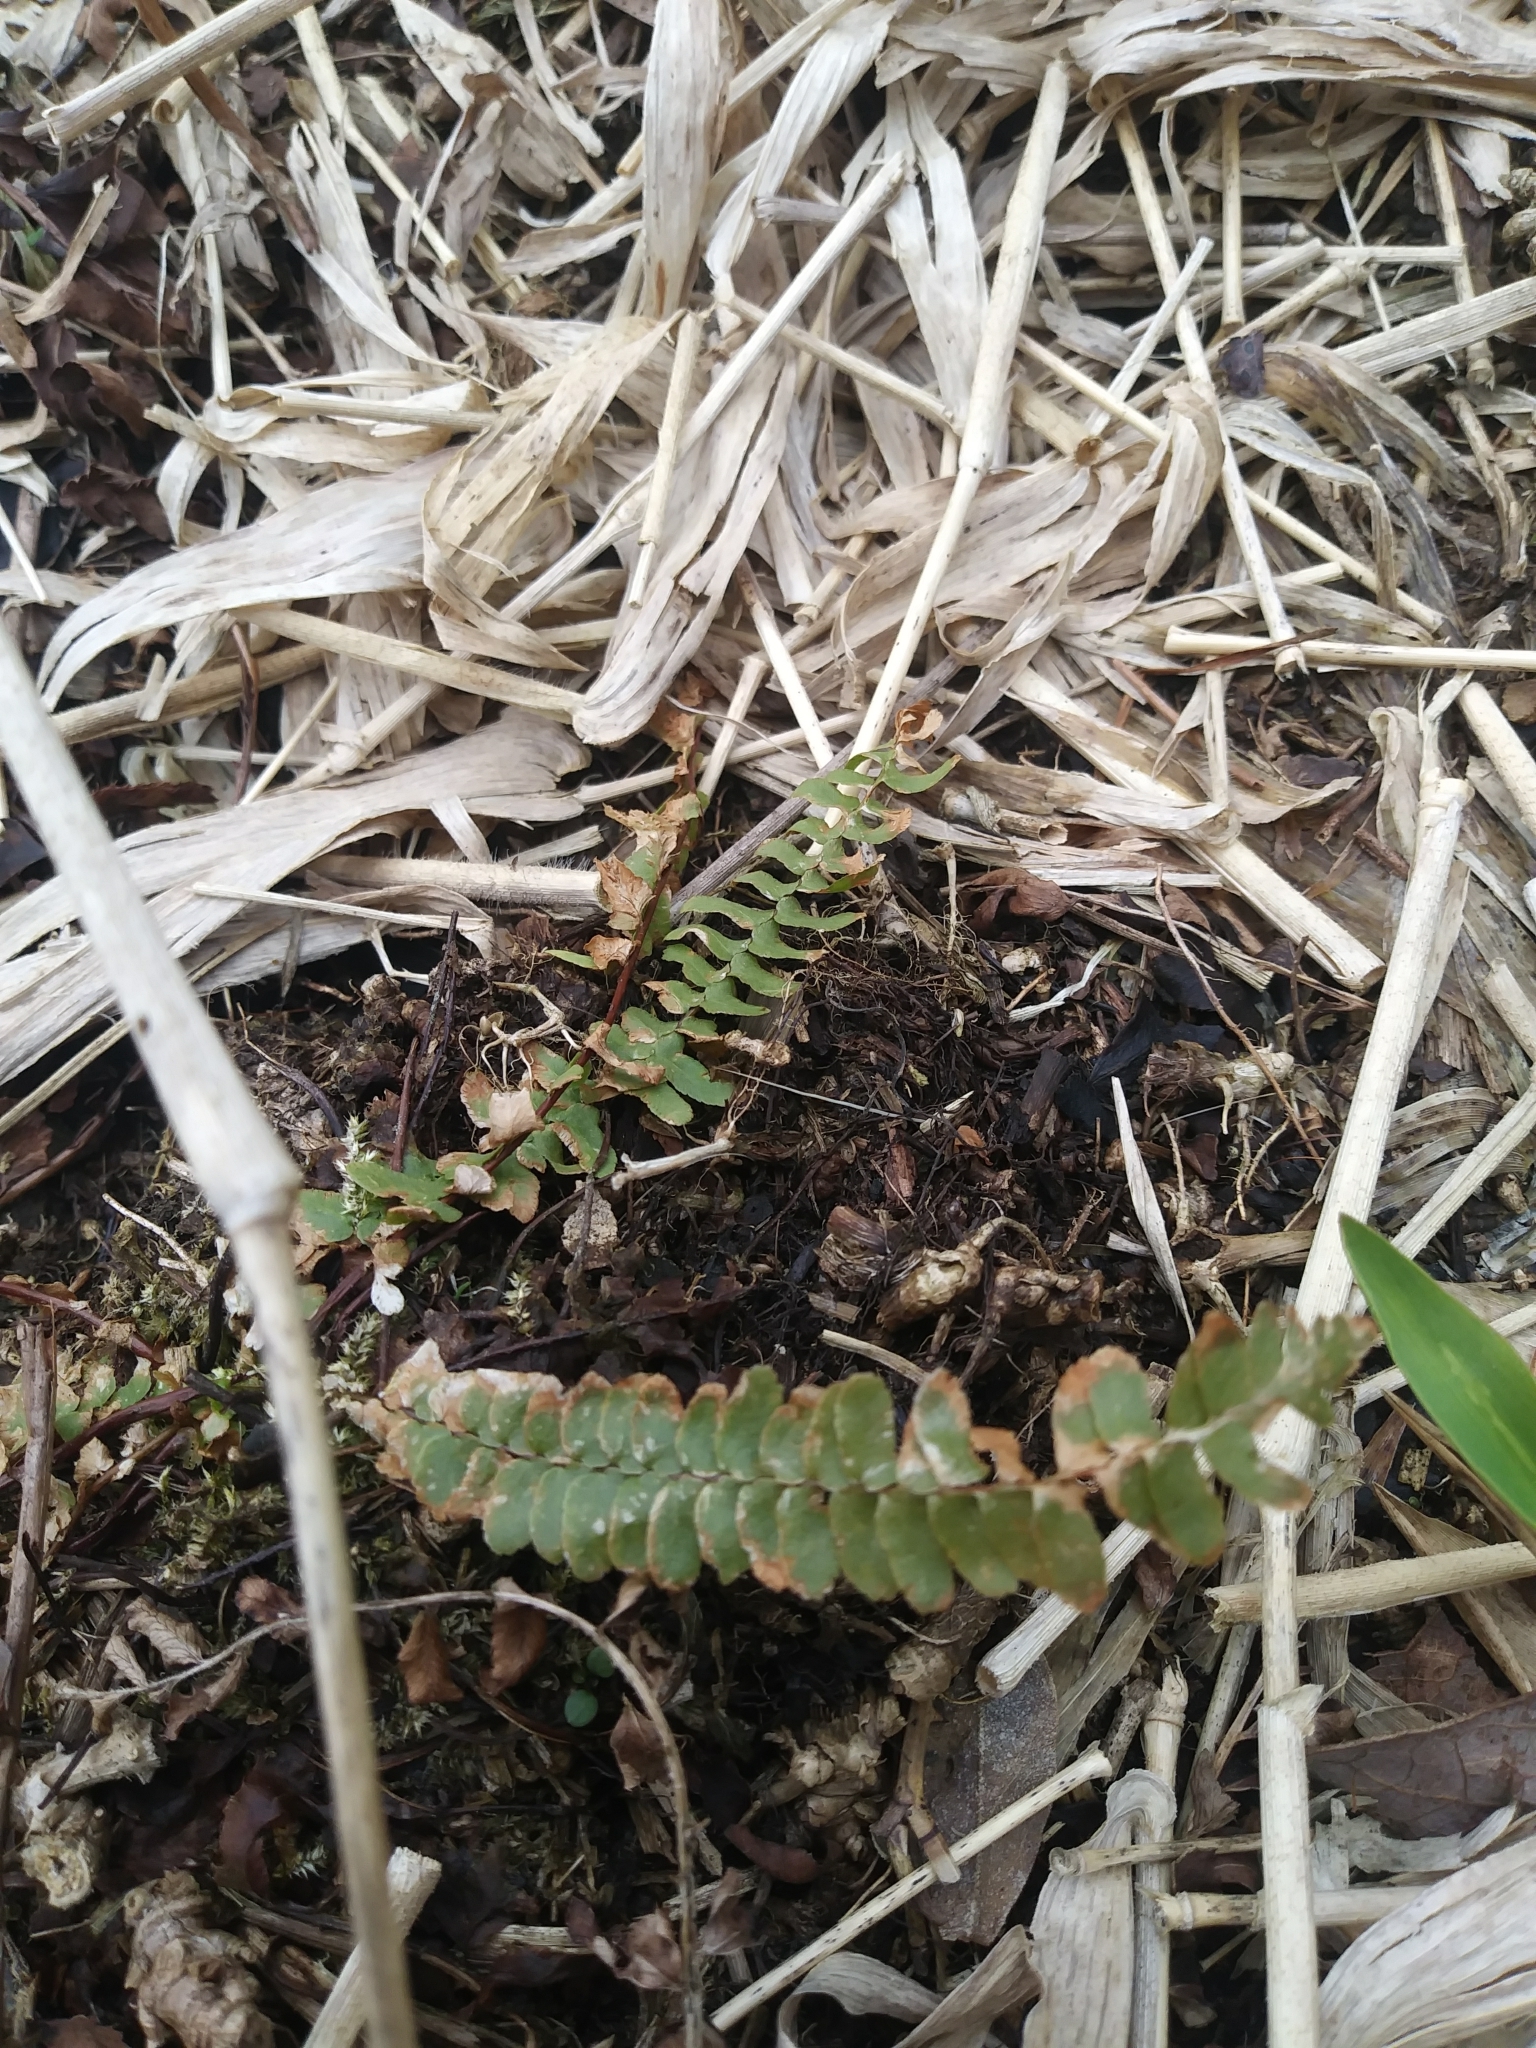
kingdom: Plantae
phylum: Tracheophyta
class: Polypodiopsida
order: Polypodiales
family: Aspleniaceae
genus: Asplenium
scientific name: Asplenium platyneuron
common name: Ebony spleenwort
